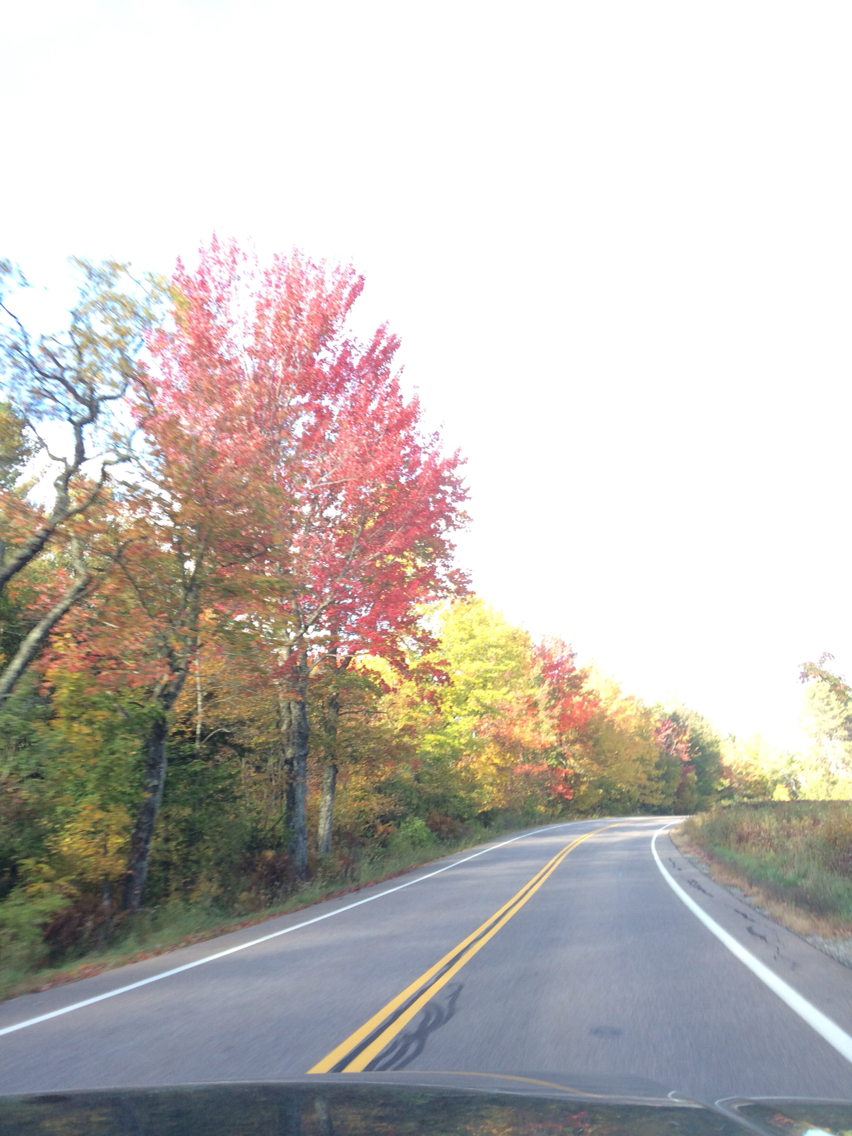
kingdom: Plantae
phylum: Tracheophyta
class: Magnoliopsida
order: Sapindales
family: Sapindaceae
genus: Acer
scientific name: Acer rubrum
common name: Red maple
